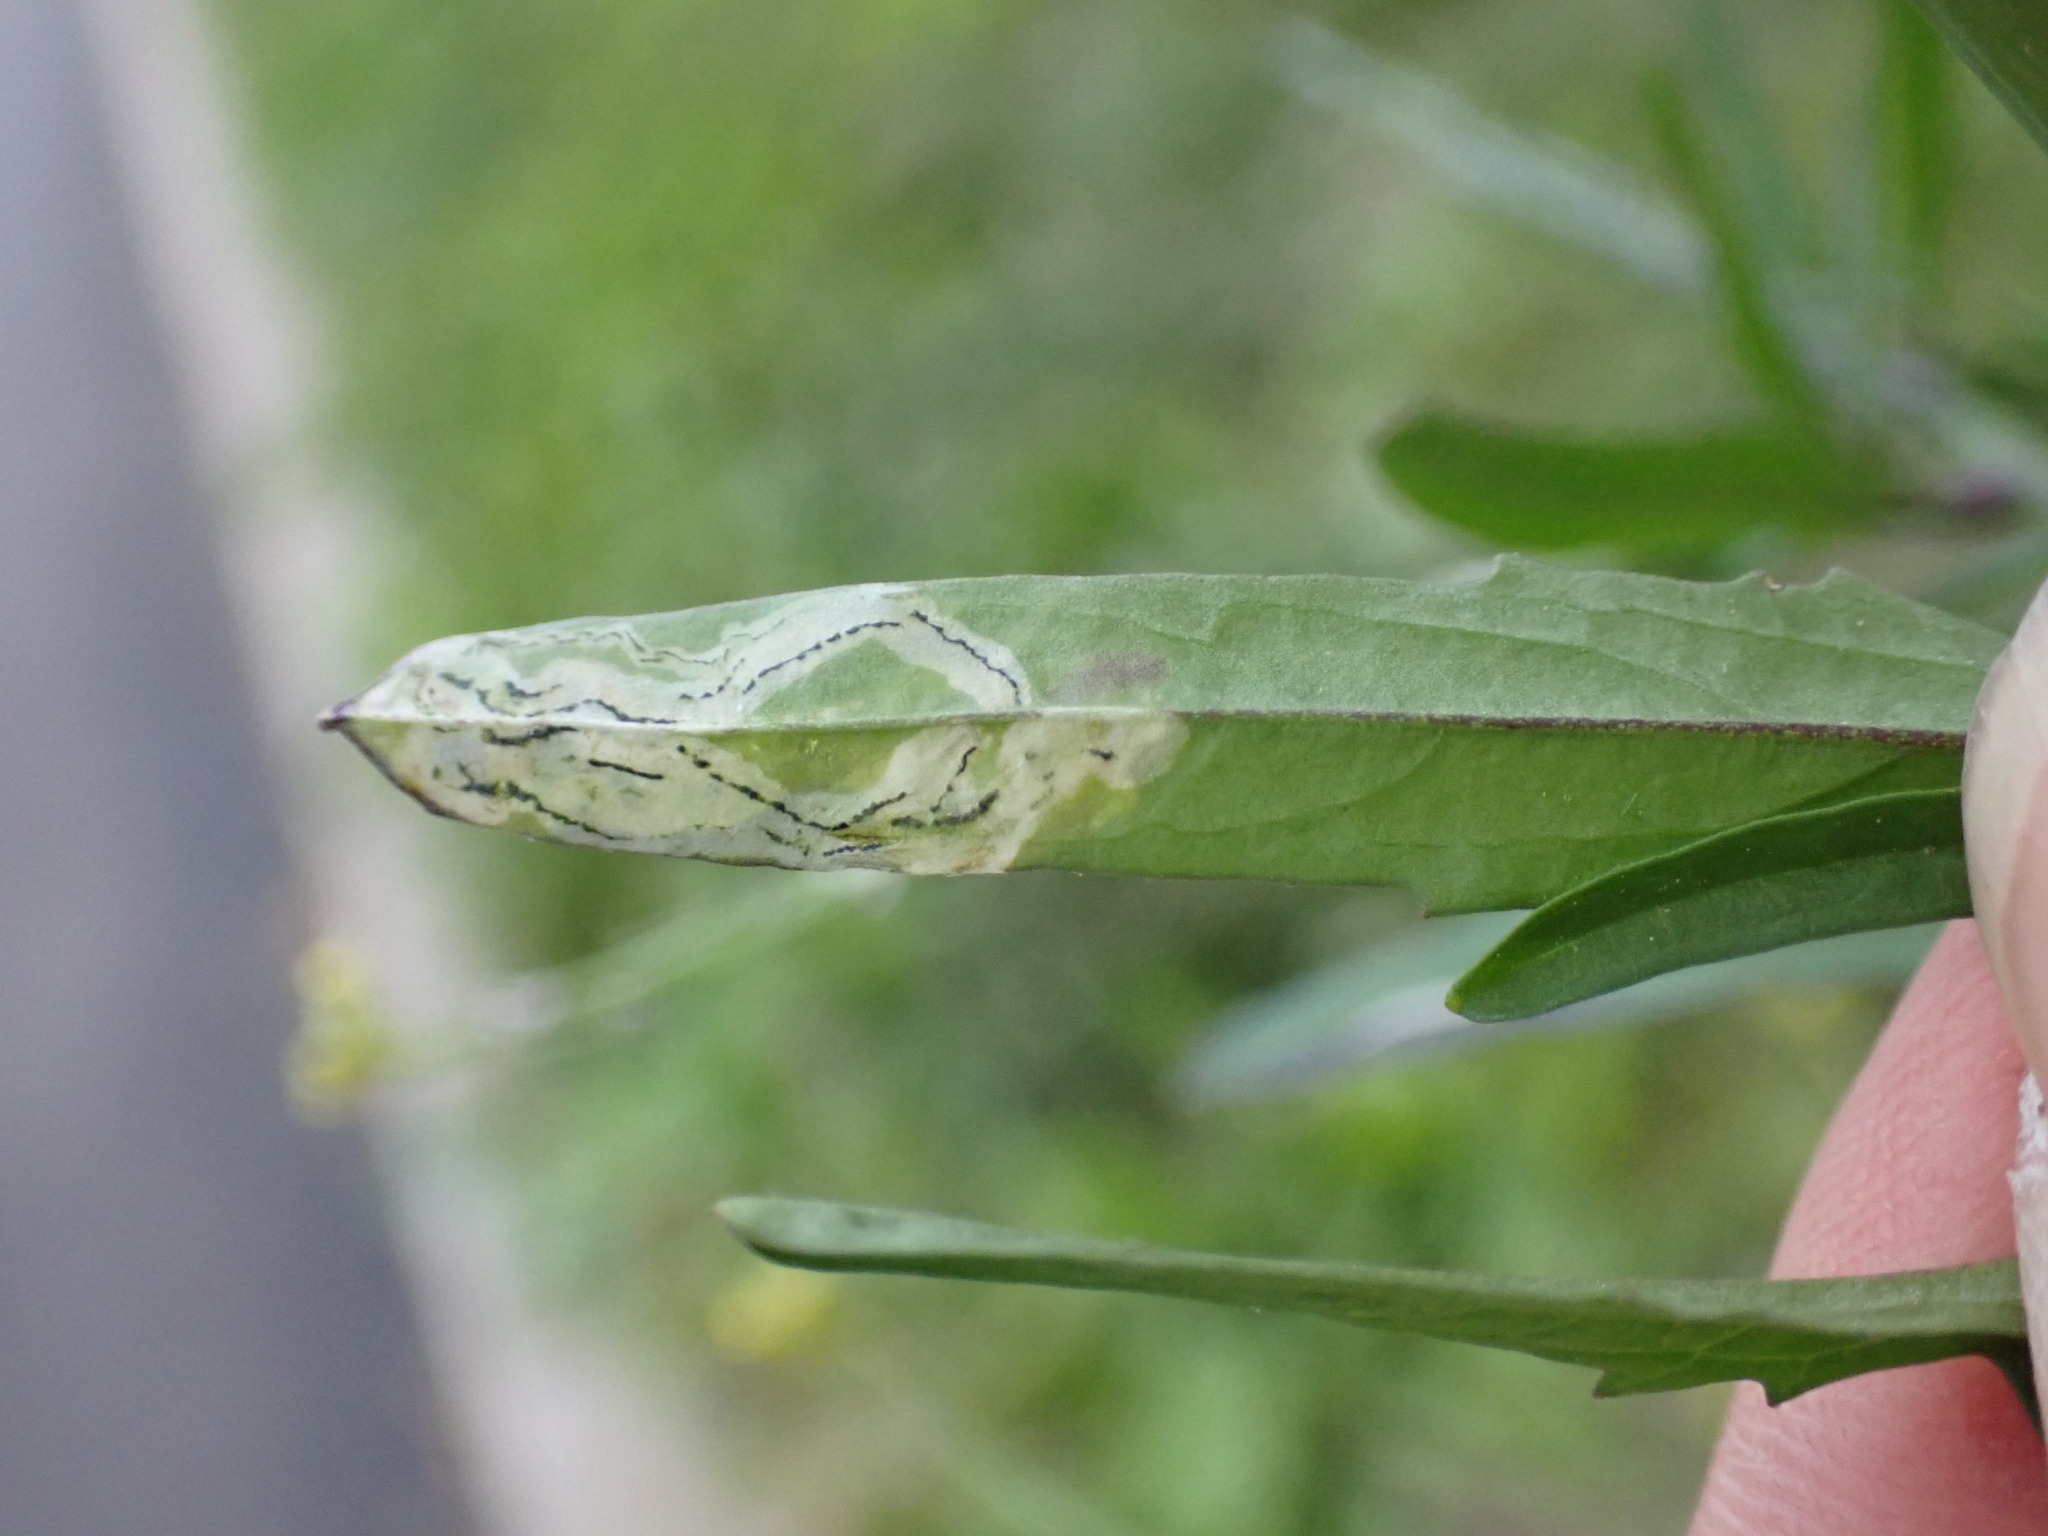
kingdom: Animalia
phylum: Arthropoda
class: Insecta
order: Diptera
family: Agromyzidae
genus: Liriomyza
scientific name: Liriomyza brassicae
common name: Serpentine leaf miner
